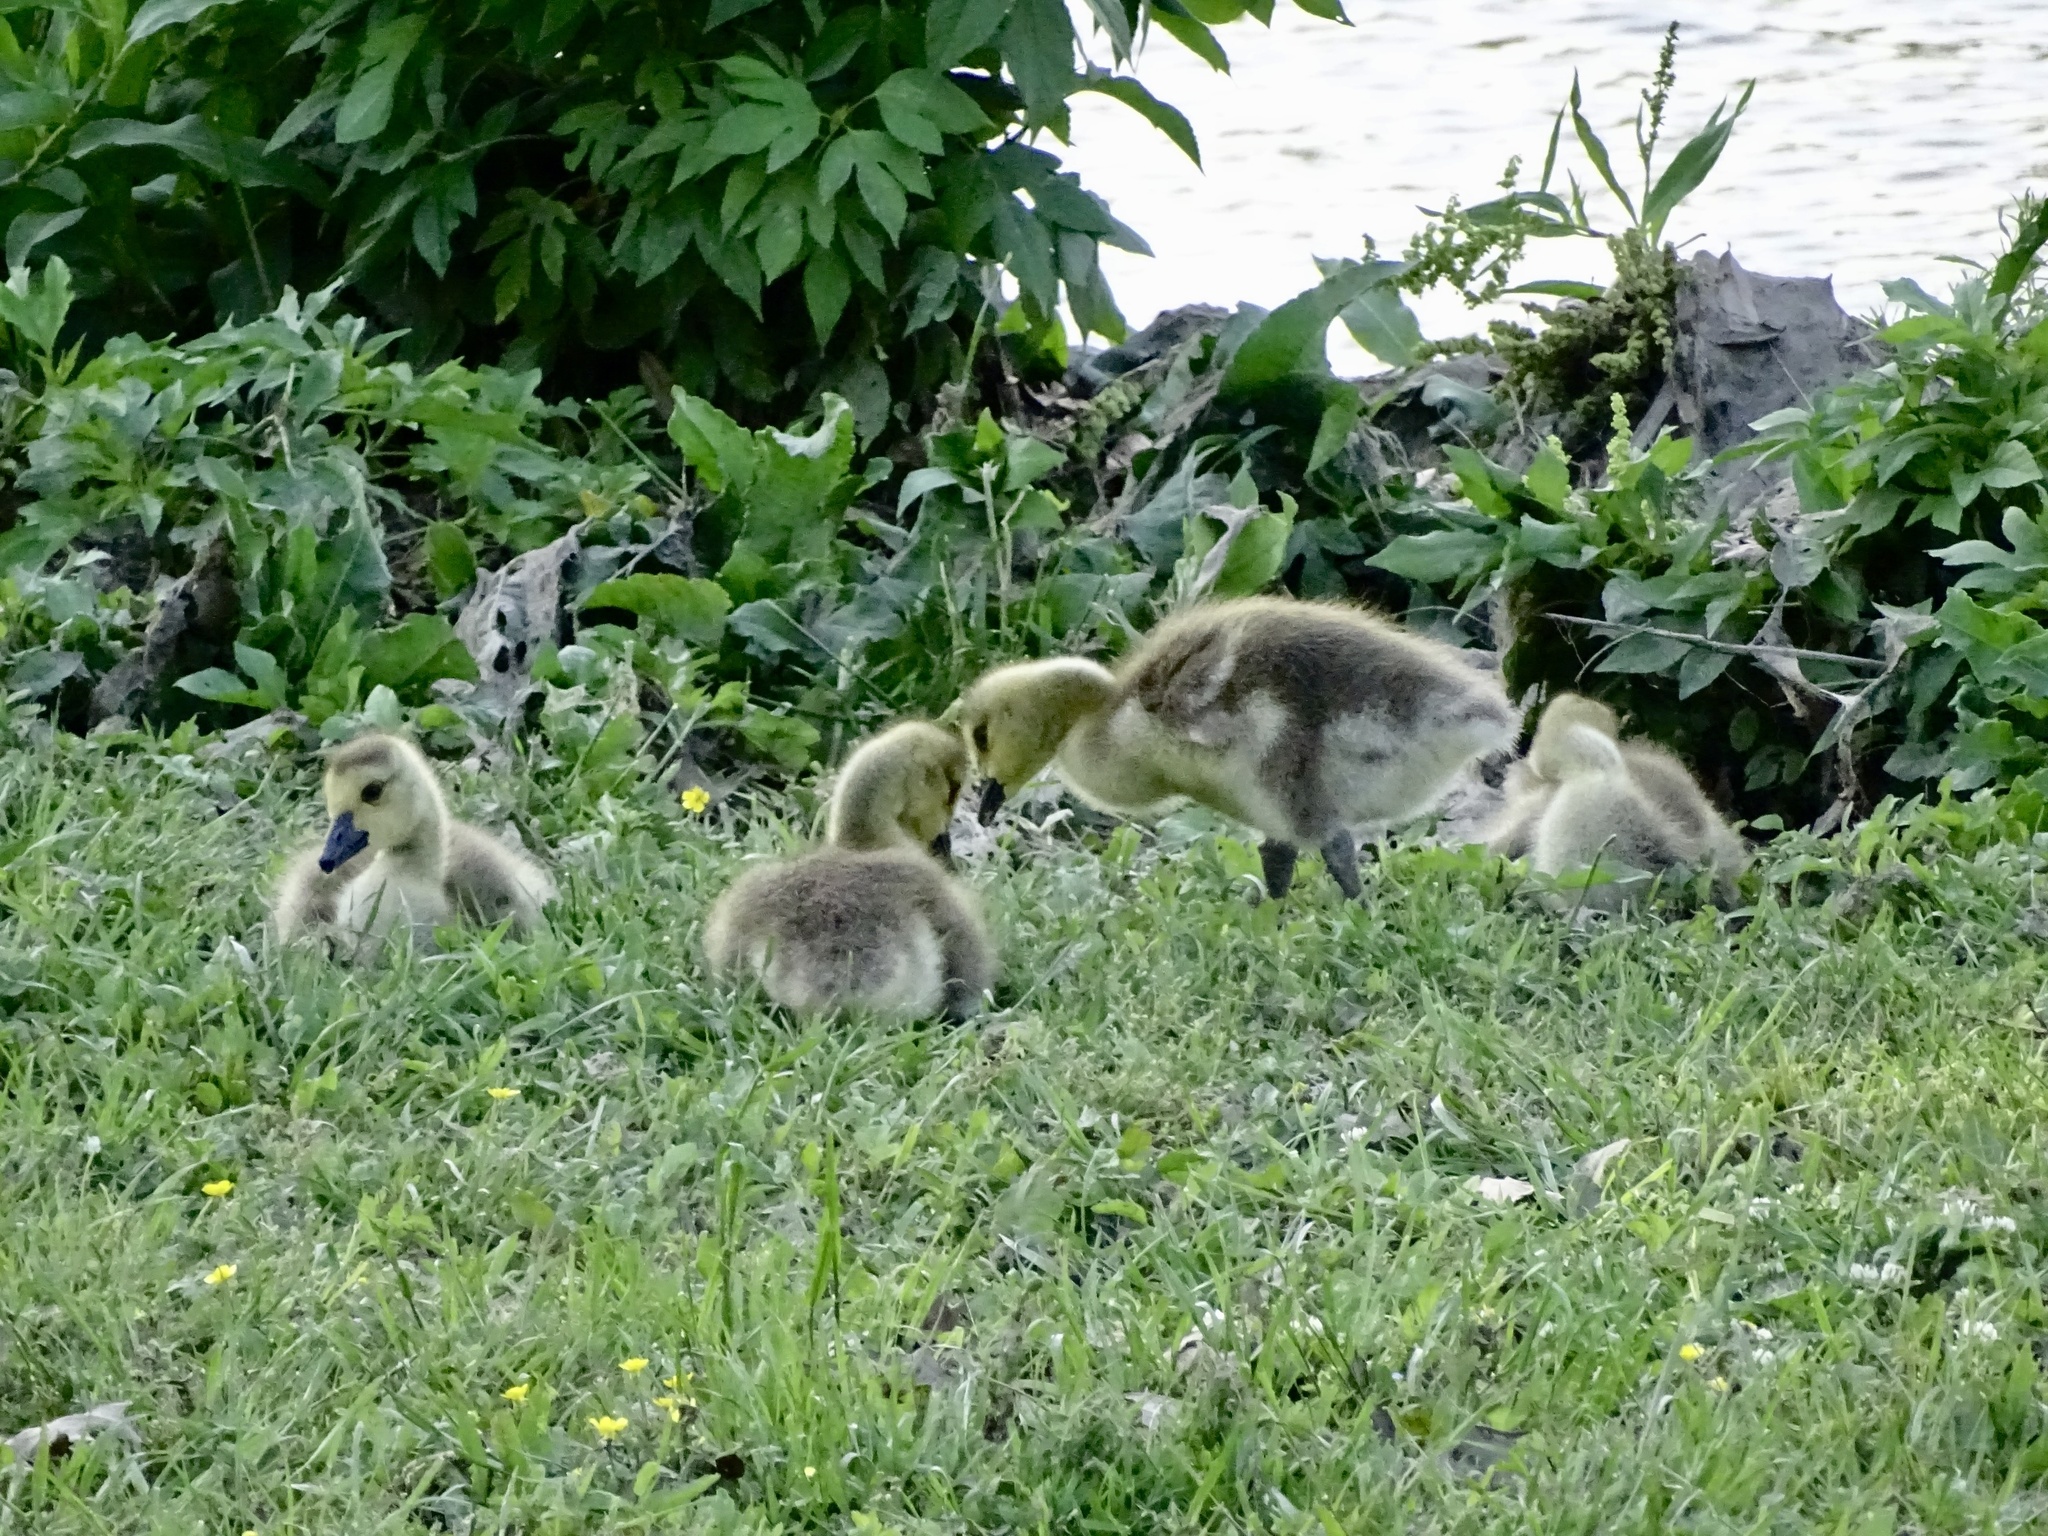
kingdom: Animalia
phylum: Chordata
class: Aves
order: Anseriformes
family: Anatidae
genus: Branta
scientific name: Branta canadensis
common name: Canada goose
